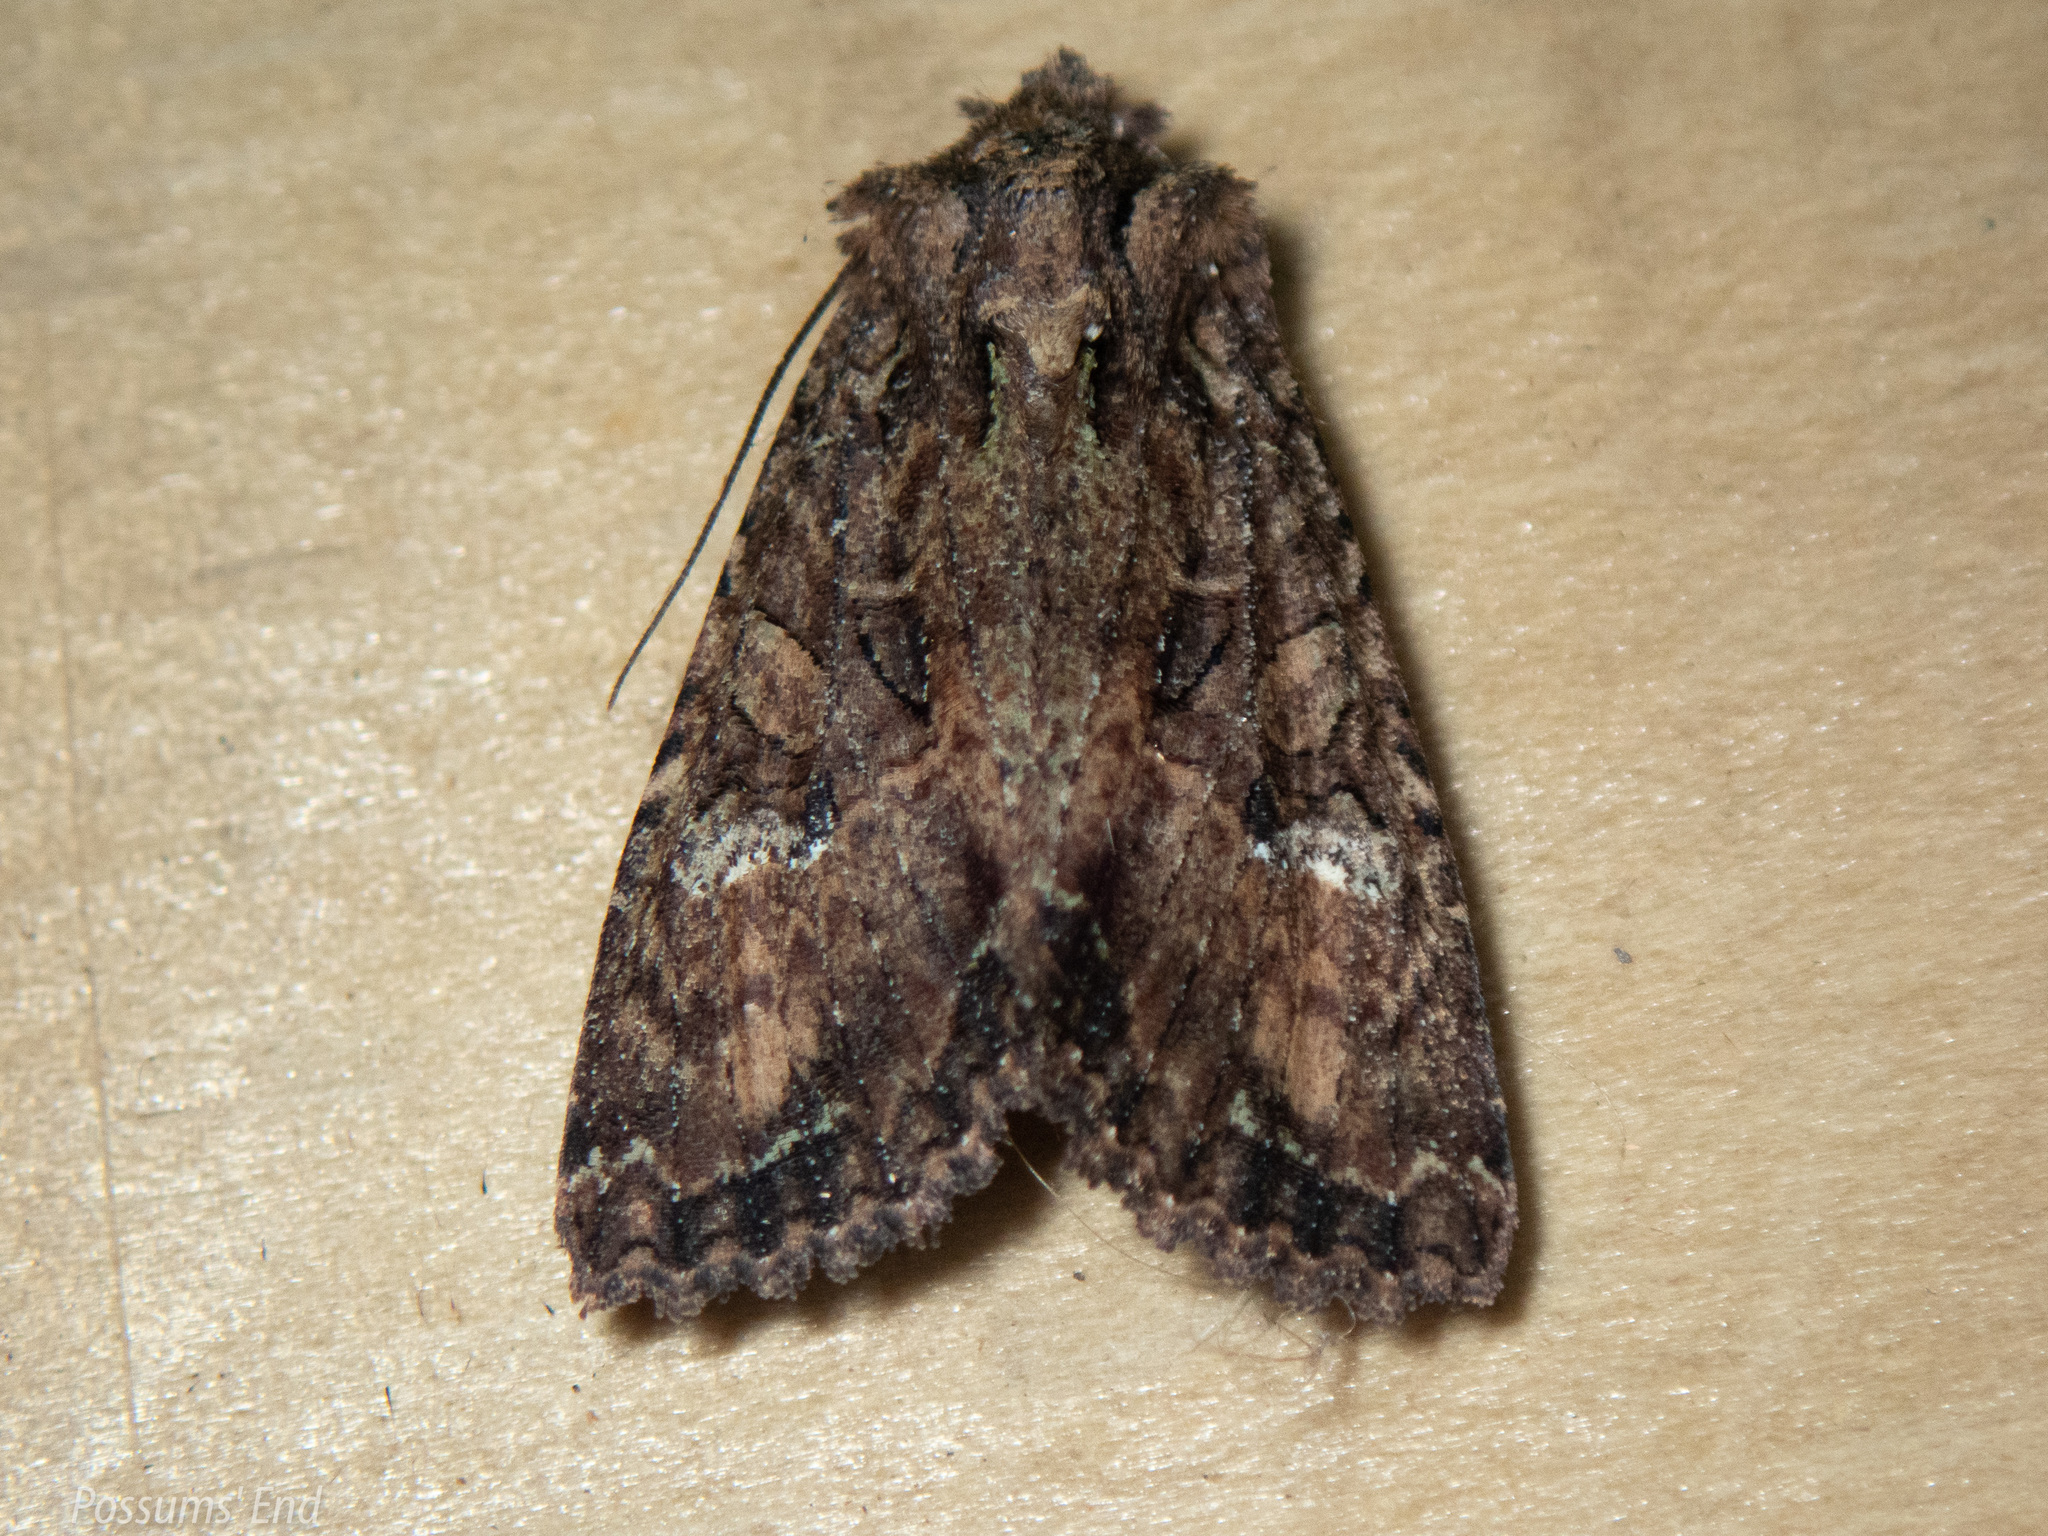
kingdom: Animalia
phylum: Arthropoda
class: Insecta
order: Lepidoptera
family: Noctuidae
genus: Meterana
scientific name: Meterana ochthistis
